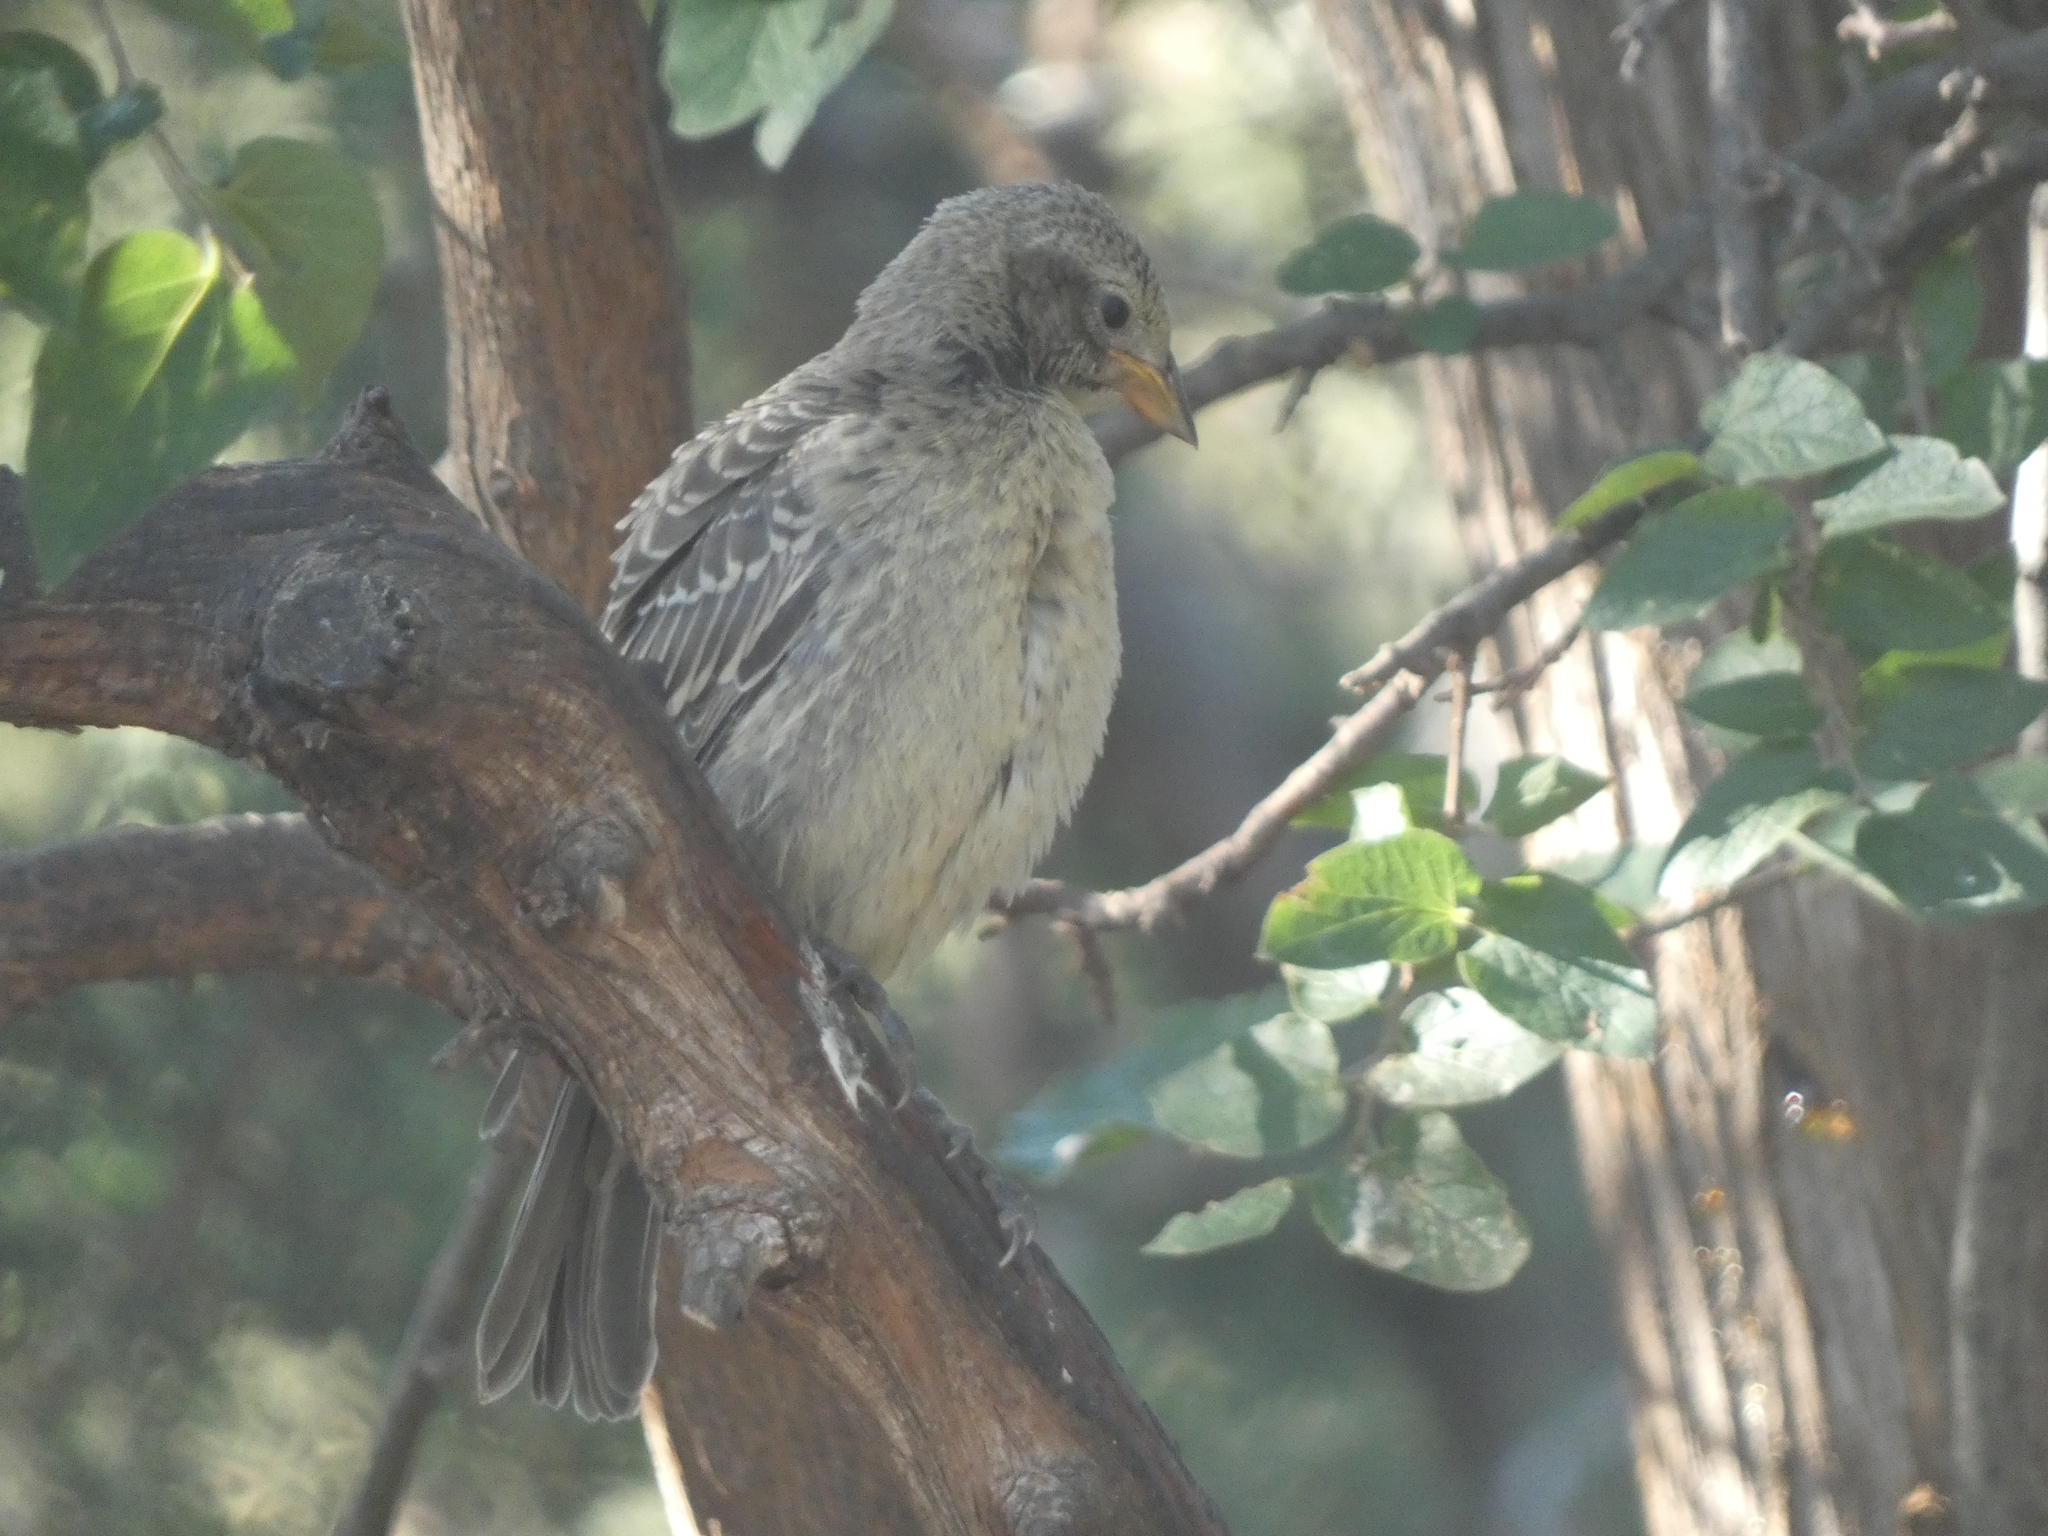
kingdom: Animalia
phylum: Chordata
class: Aves
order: Passeriformes
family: Icteridae
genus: Molothrus
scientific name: Molothrus ater
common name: Brown-headed cowbird
